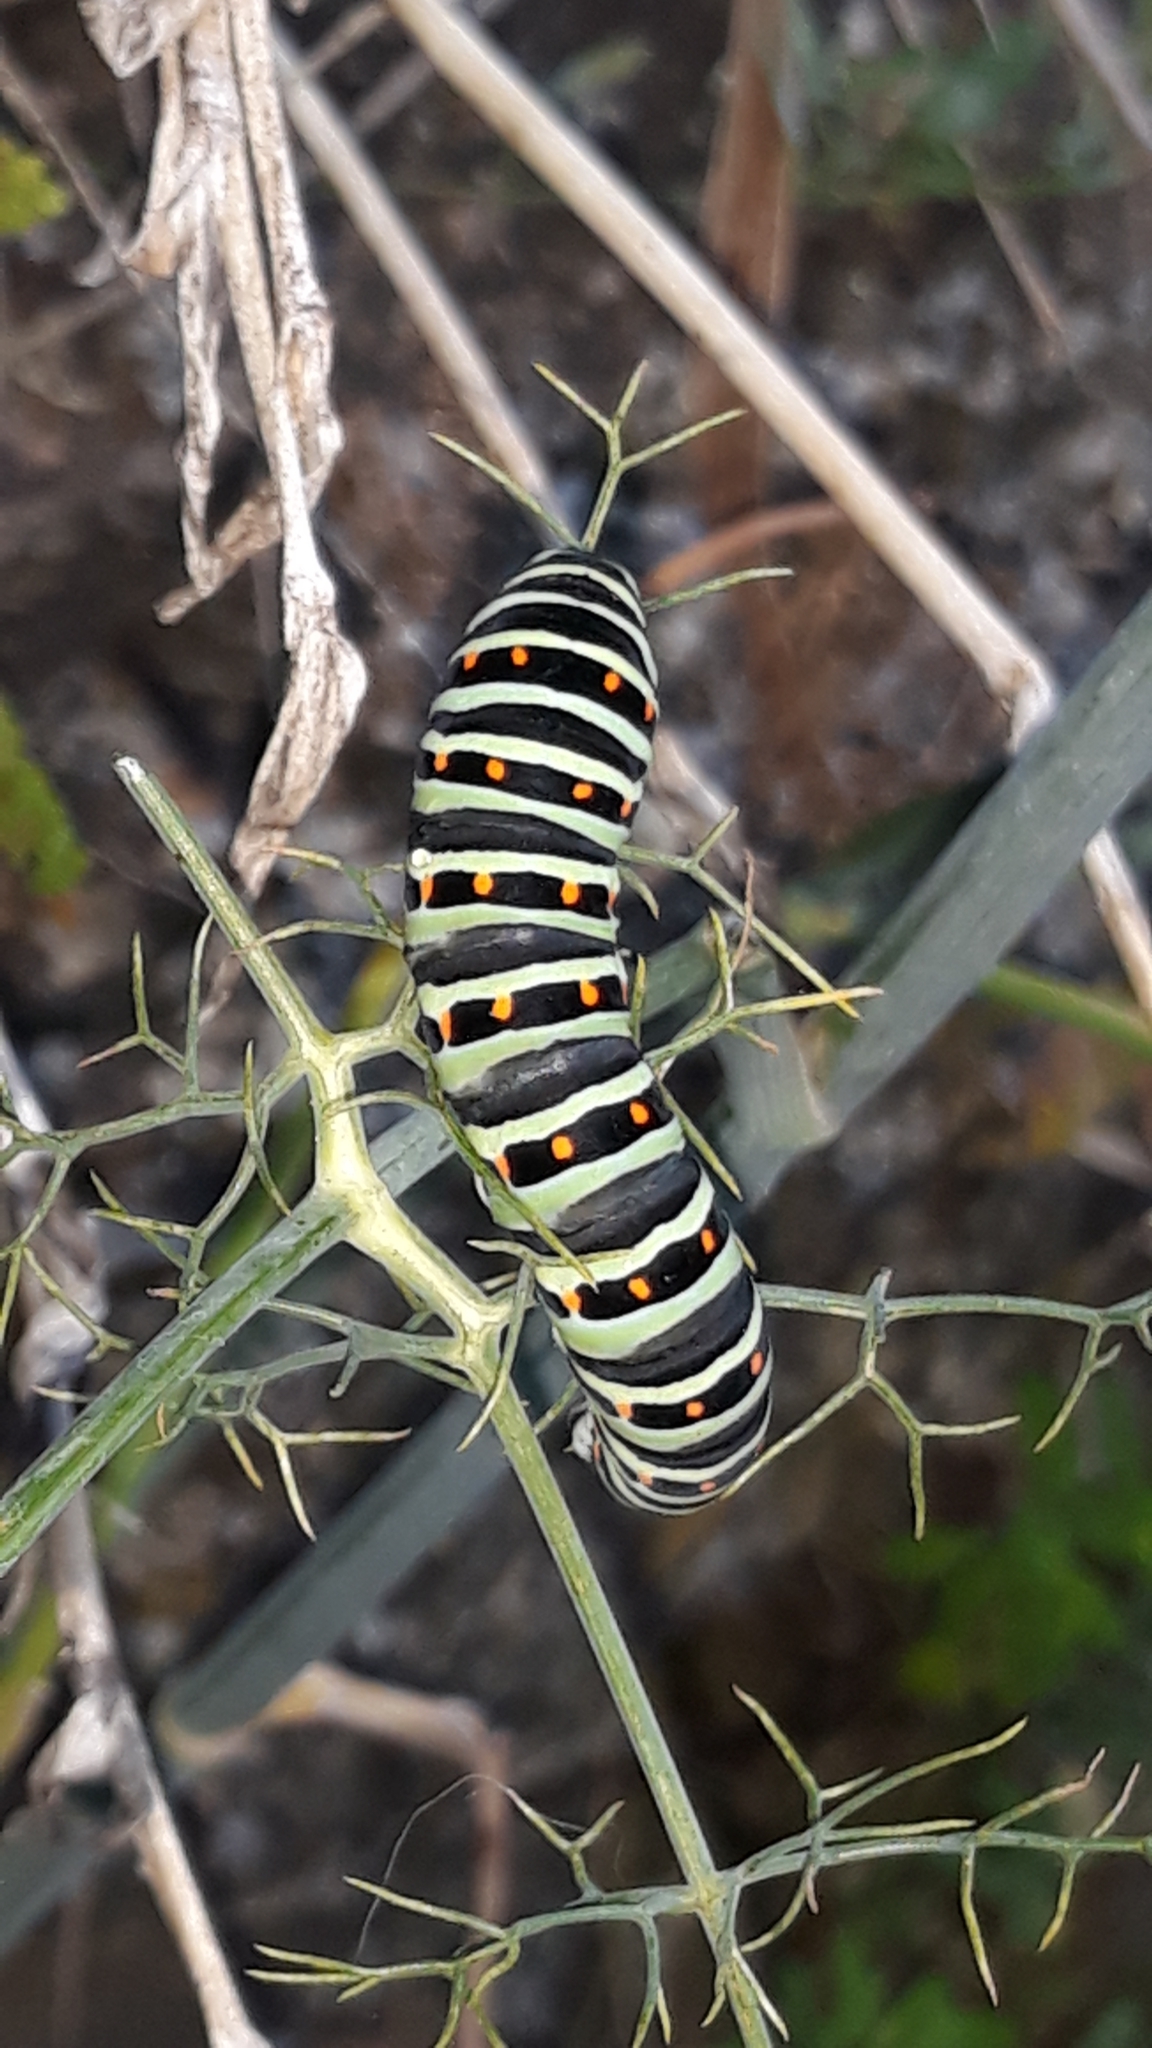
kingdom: Animalia
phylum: Arthropoda
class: Insecta
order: Lepidoptera
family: Papilionidae
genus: Papilio
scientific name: Papilio machaon
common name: Swallowtail
